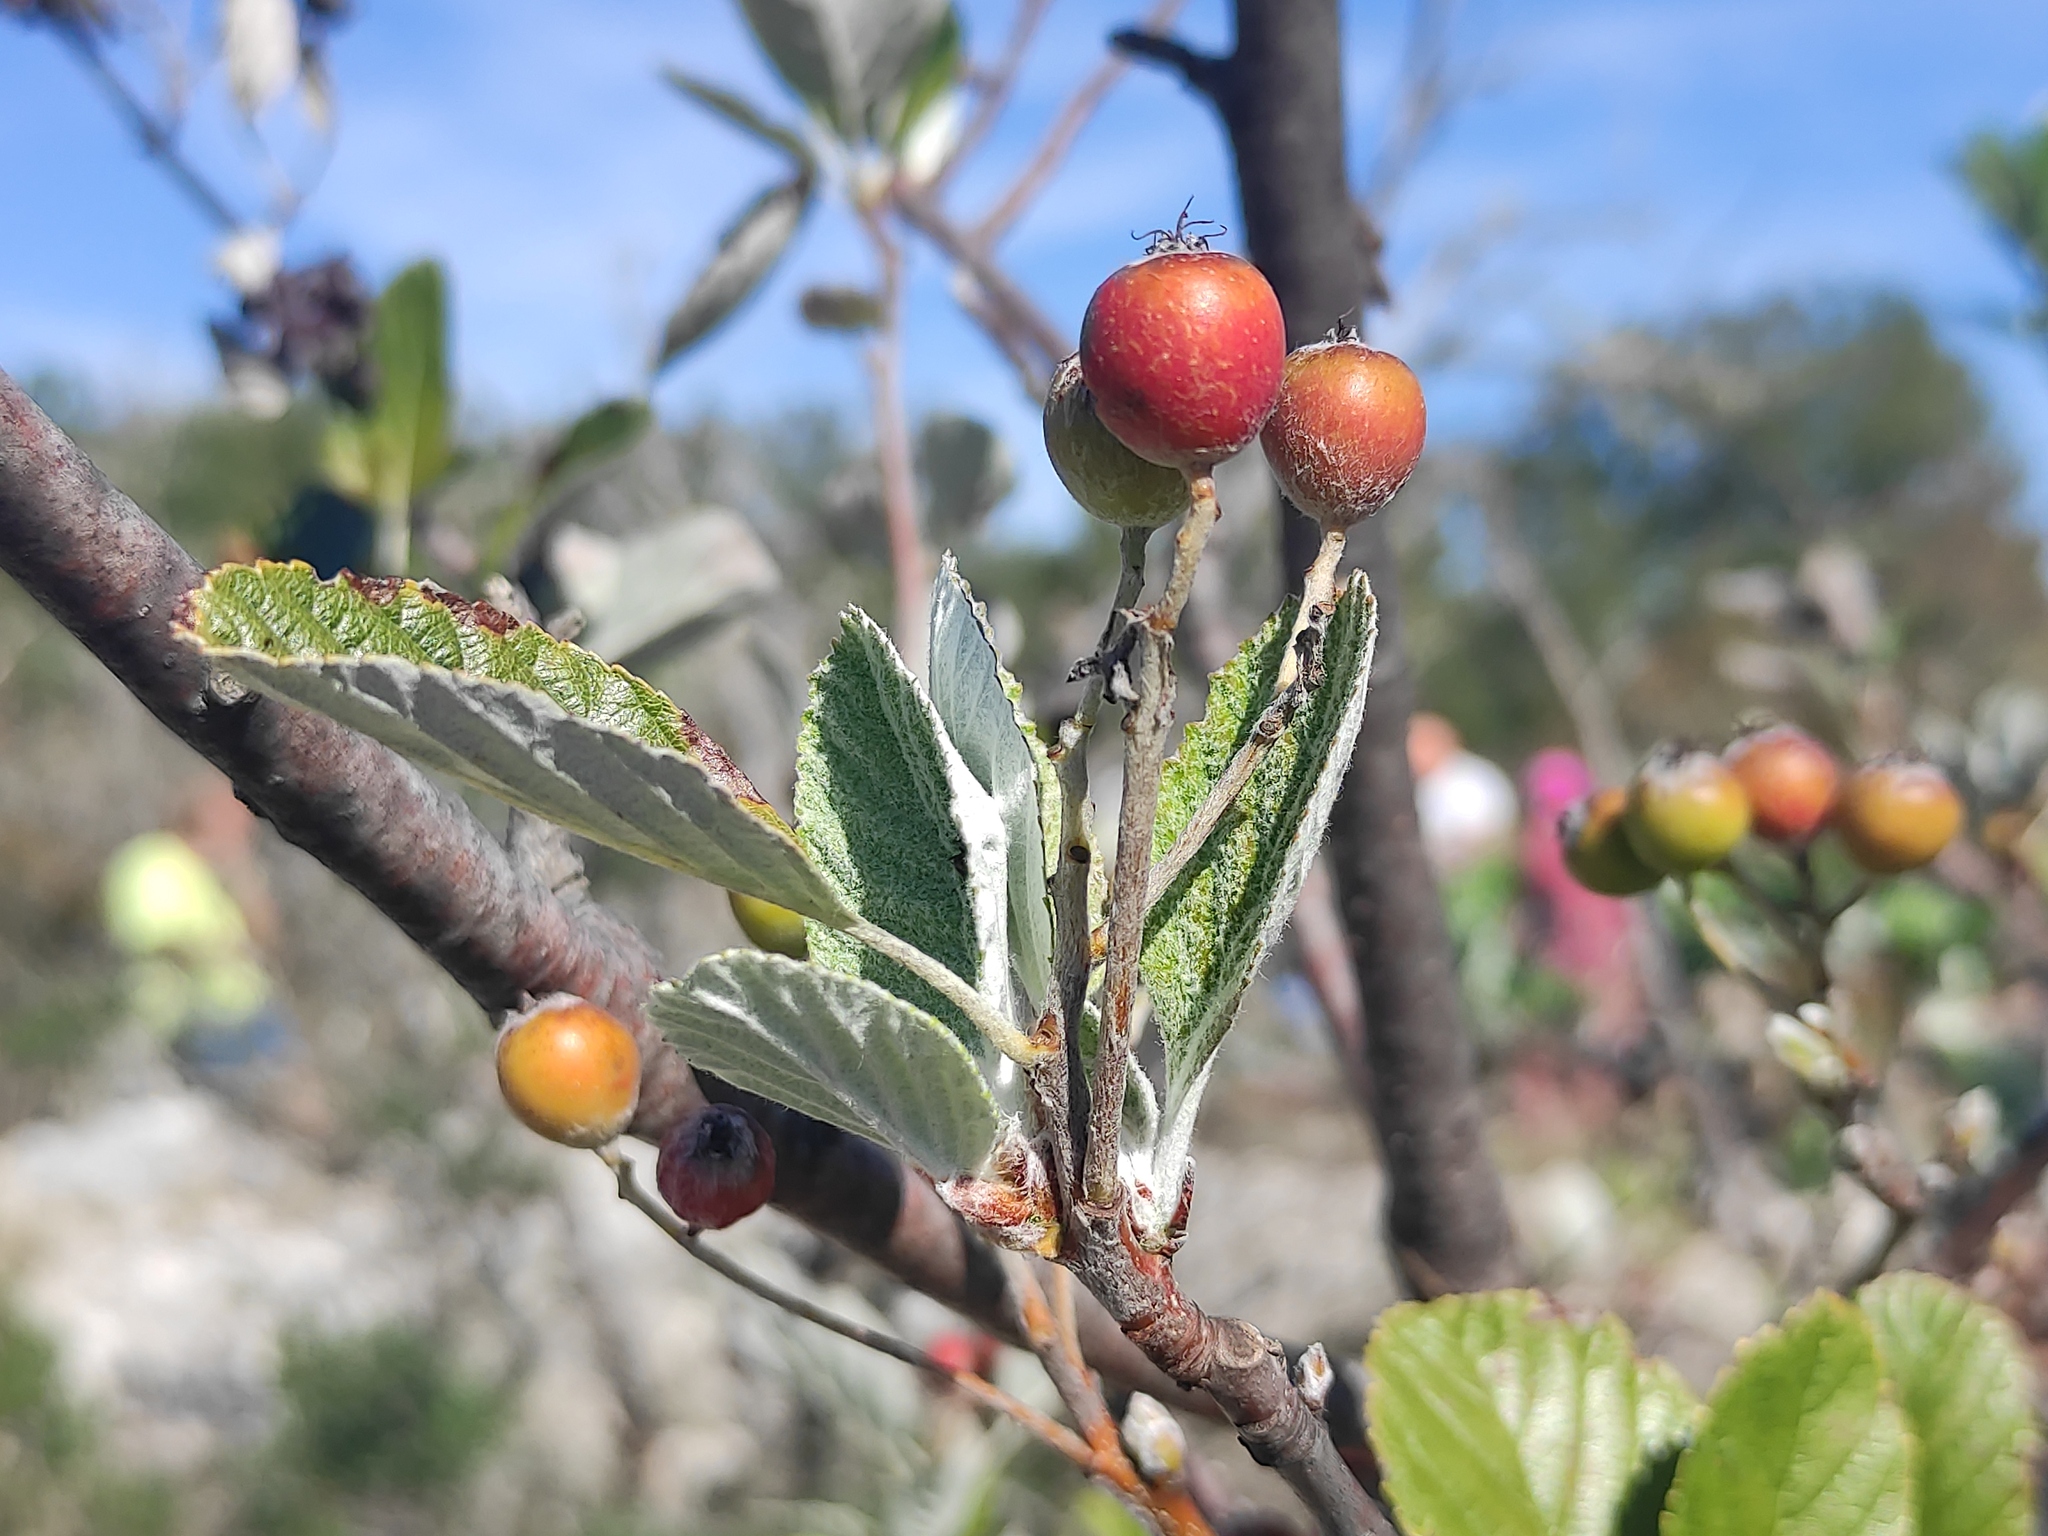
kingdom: Plantae
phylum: Tracheophyta
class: Magnoliopsida
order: Rosales
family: Rosaceae
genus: Aria
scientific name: Aria edulis
